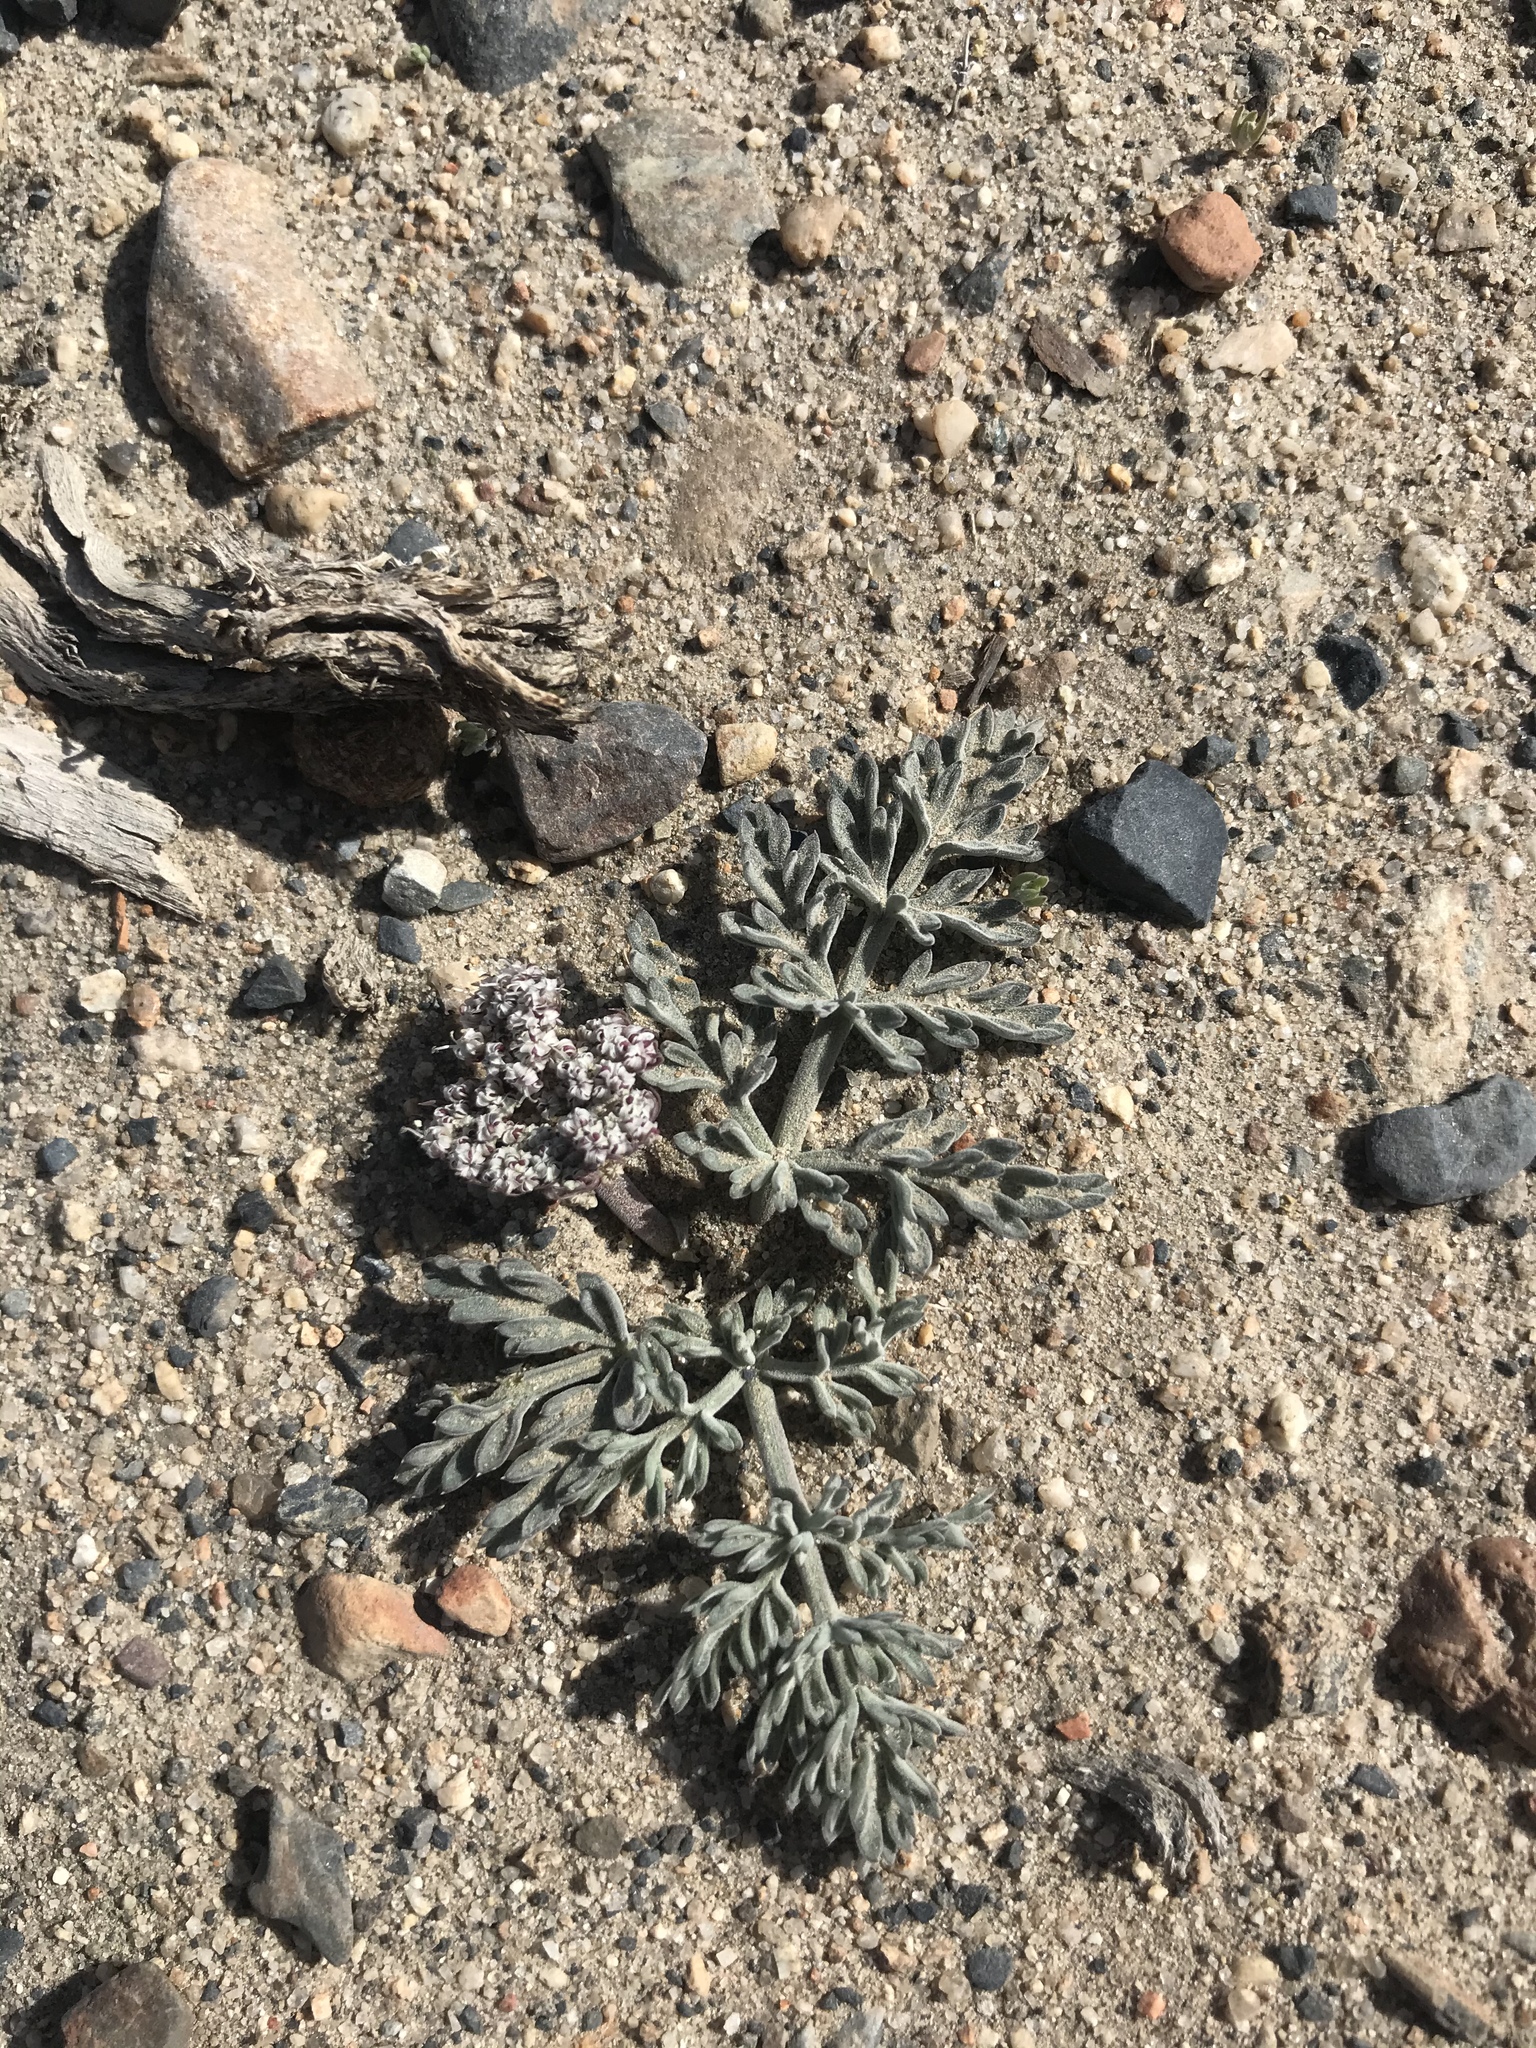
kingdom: Plantae
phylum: Tracheophyta
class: Magnoliopsida
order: Apiales
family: Apiaceae
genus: Lomatium
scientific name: Lomatium nevadense
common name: Nevada lomatium
